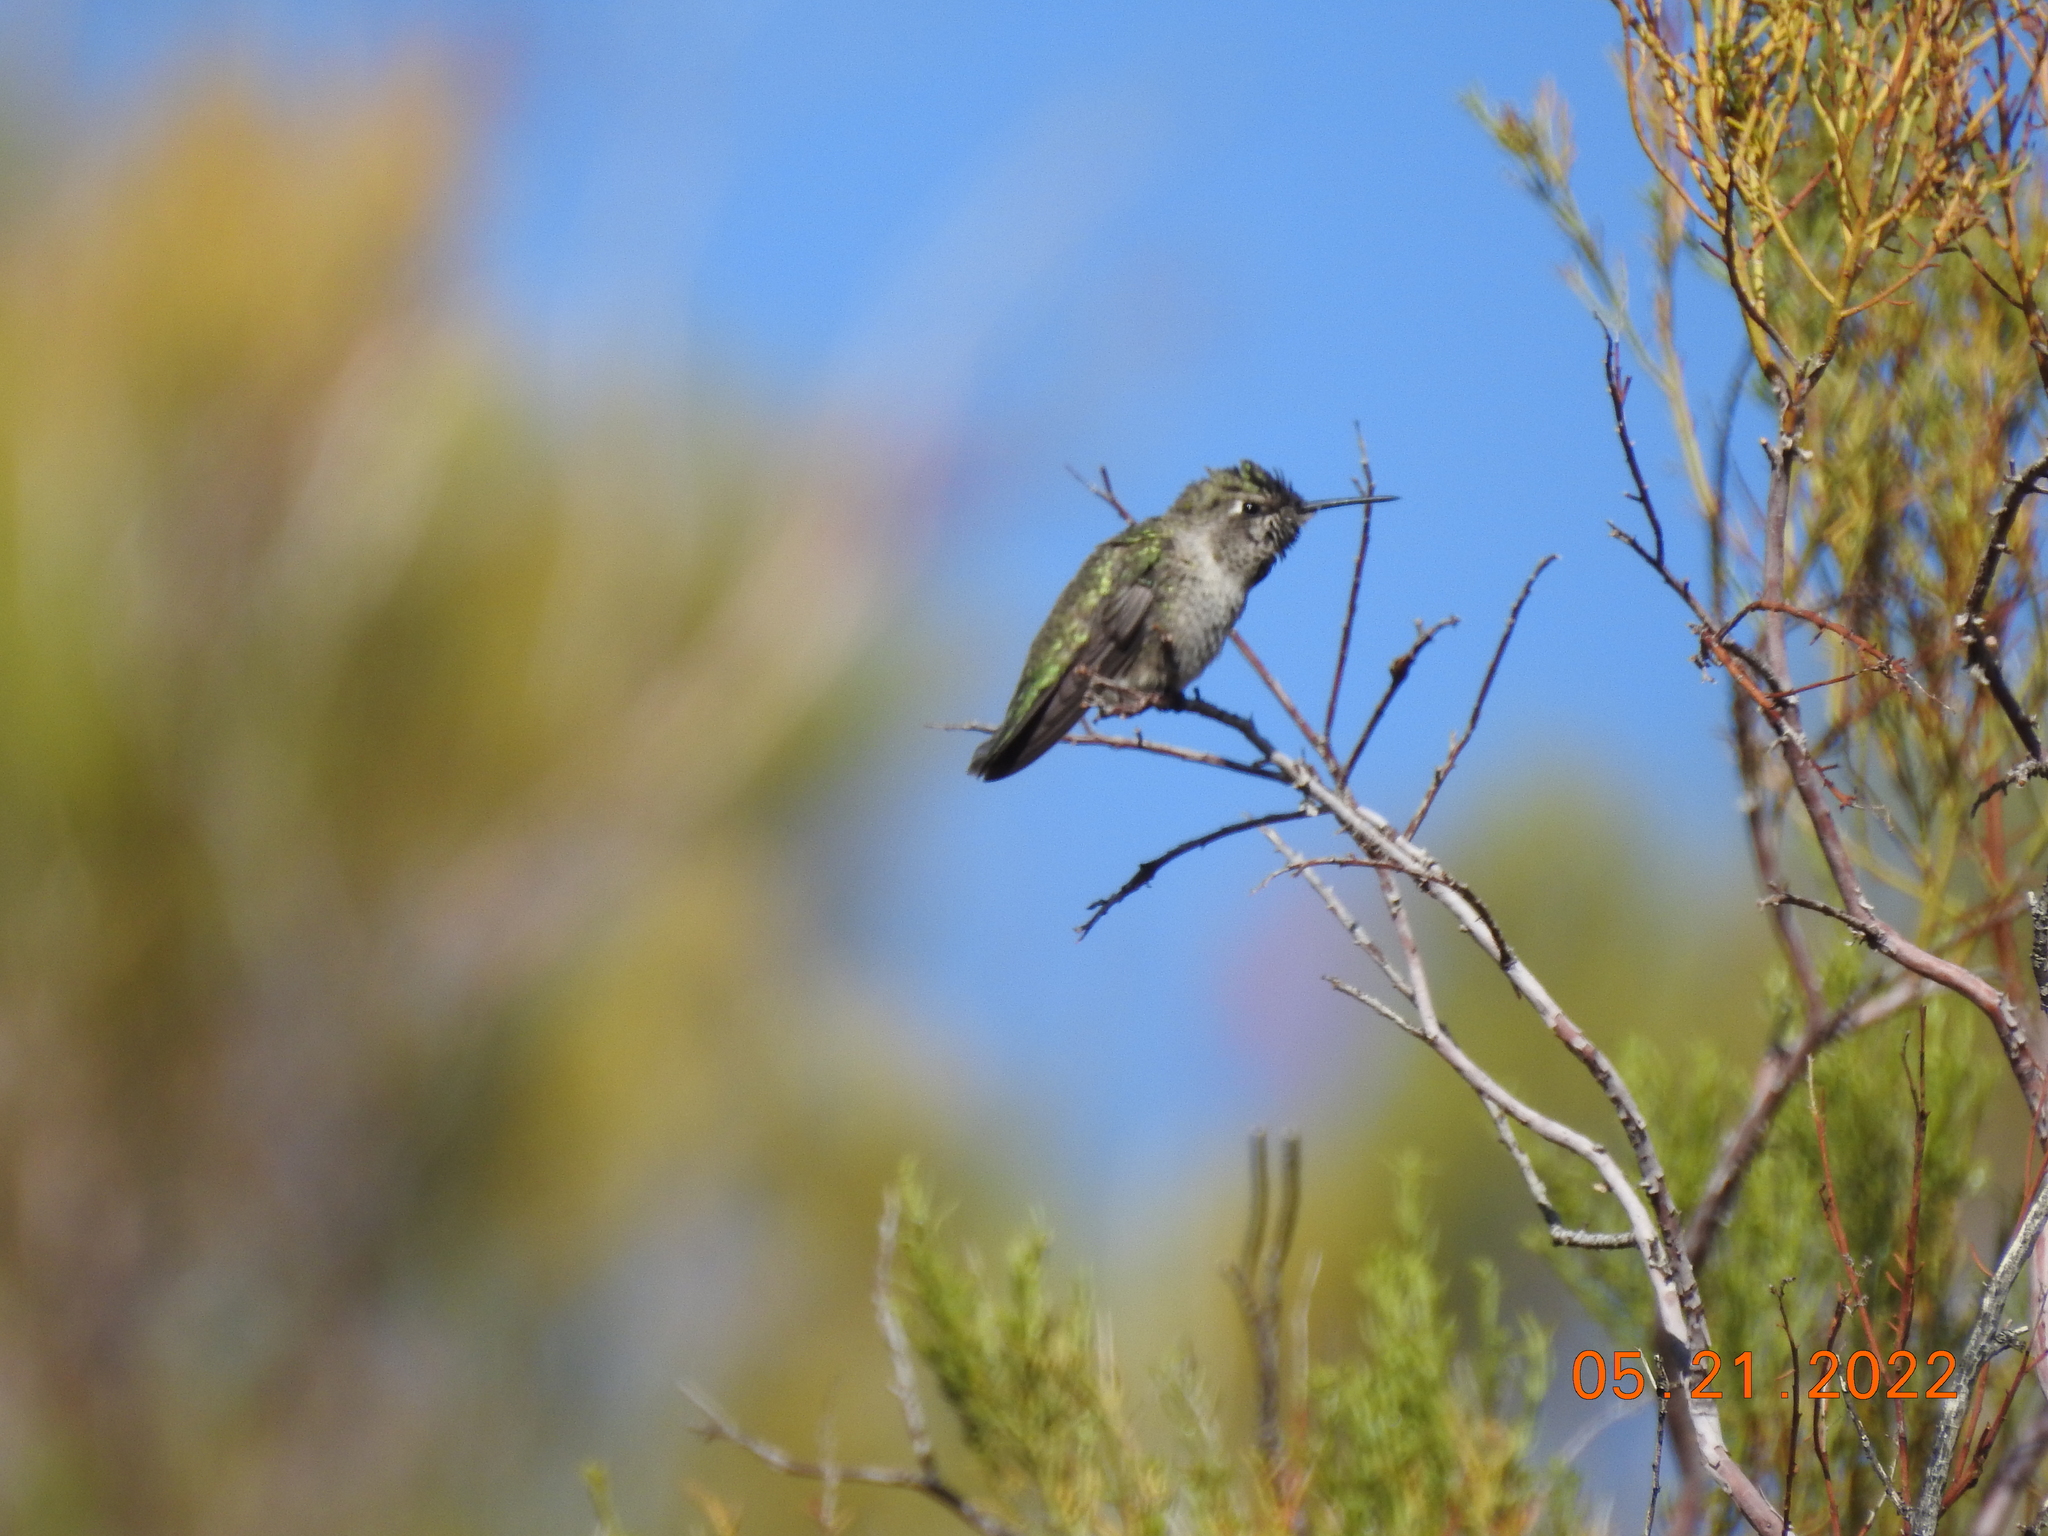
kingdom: Animalia
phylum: Chordata
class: Aves
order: Apodiformes
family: Trochilidae
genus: Calypte
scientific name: Calypte anna
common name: Anna's hummingbird
